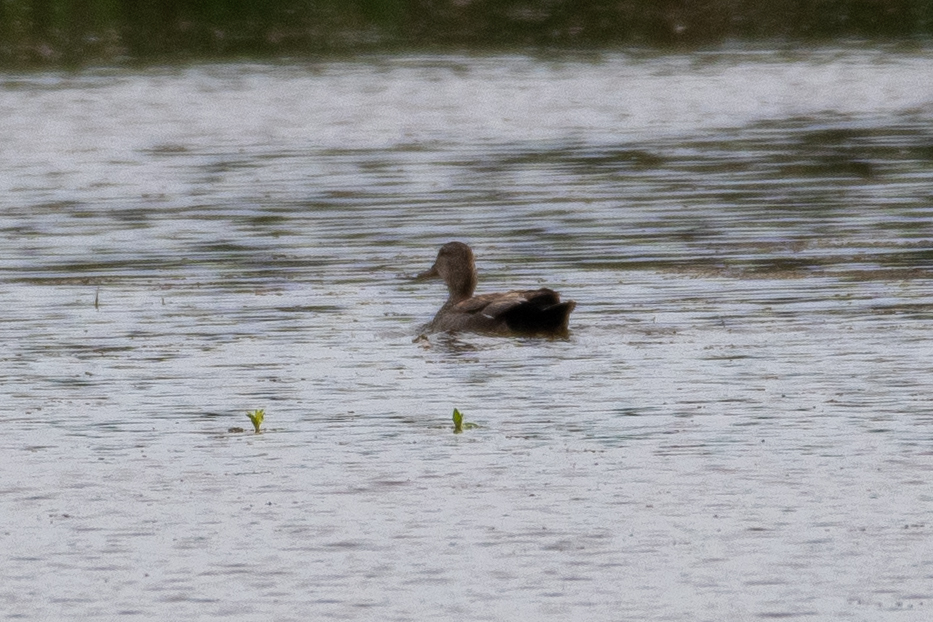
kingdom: Animalia
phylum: Chordata
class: Aves
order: Anseriformes
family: Anatidae
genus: Mareca
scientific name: Mareca strepera
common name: Gadwall
